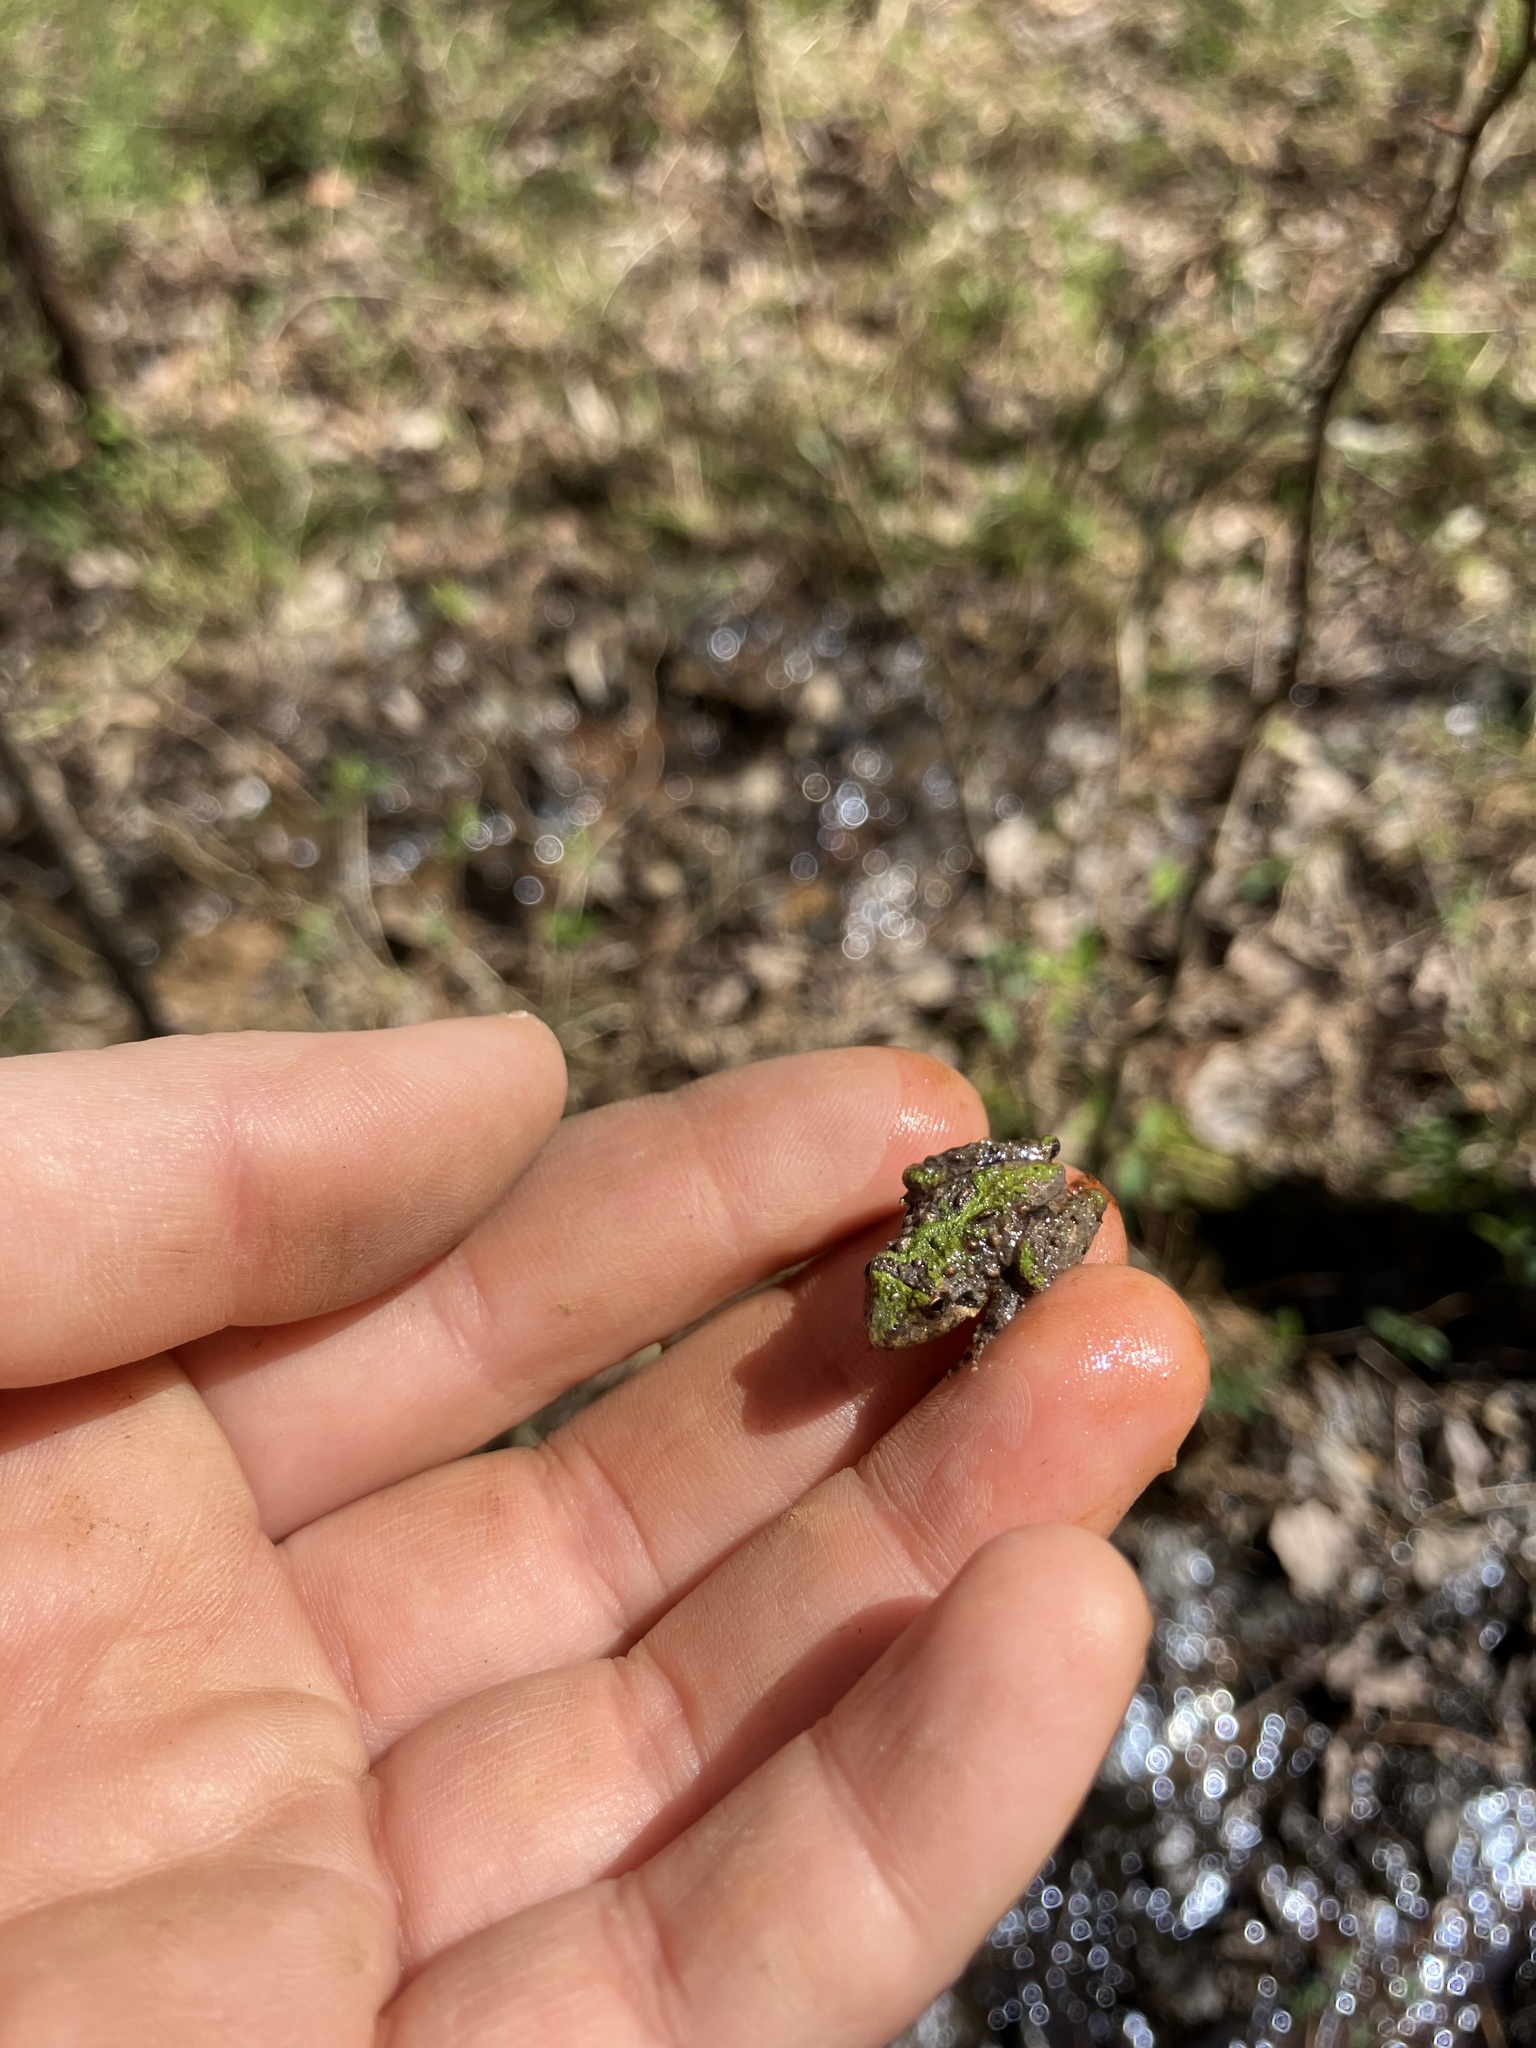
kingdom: Animalia
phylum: Chordata
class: Amphibia
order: Anura
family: Hylidae
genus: Acris
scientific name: Acris crepitans
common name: Northern cricket frog
